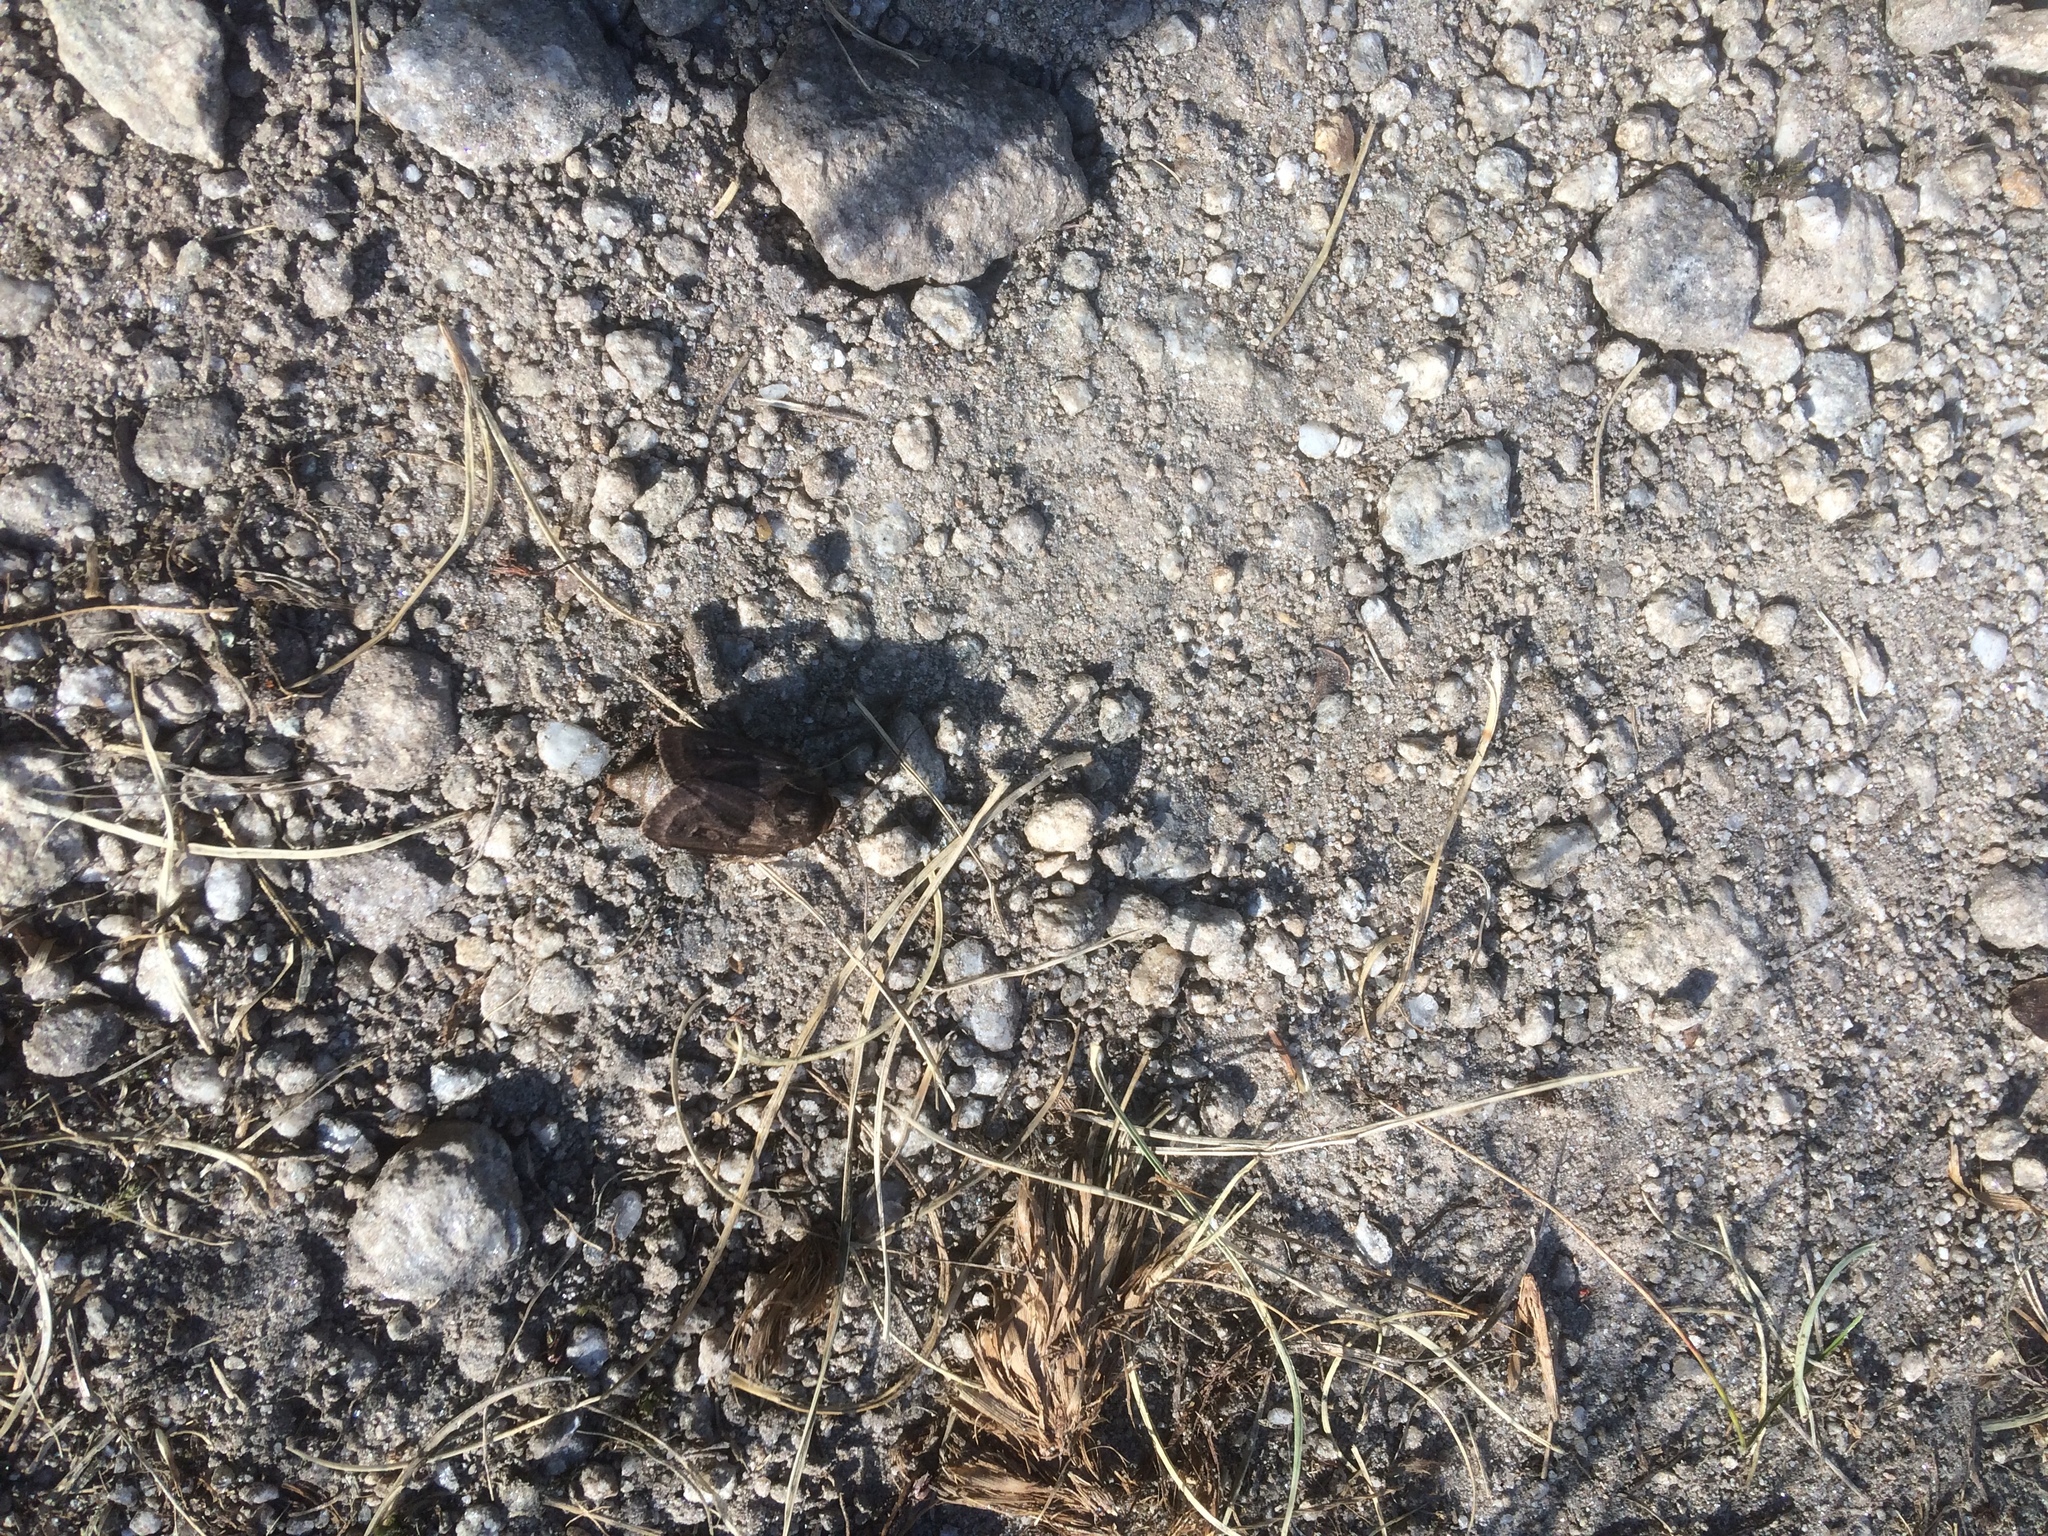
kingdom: Animalia
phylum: Arthropoda
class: Insecta
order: Lepidoptera
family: Noctuidae
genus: Agrotis
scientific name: Agrotis fatidica
